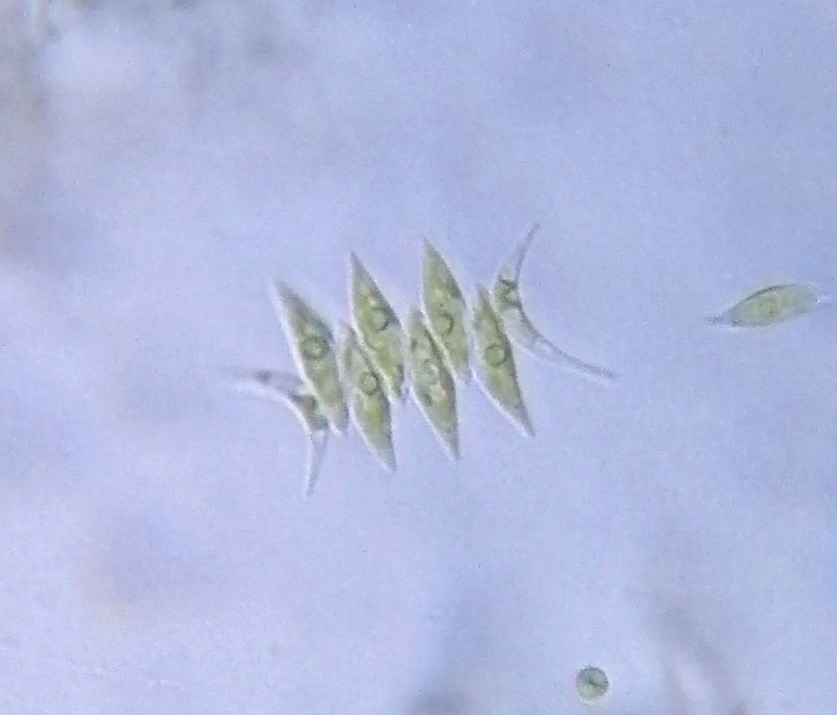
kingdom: Plantae
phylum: Chlorophyta
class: Chlorophyceae
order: Sphaeropleales
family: Scenedesmaceae
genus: Tetradesmus
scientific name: Tetradesmus lagerheimii
